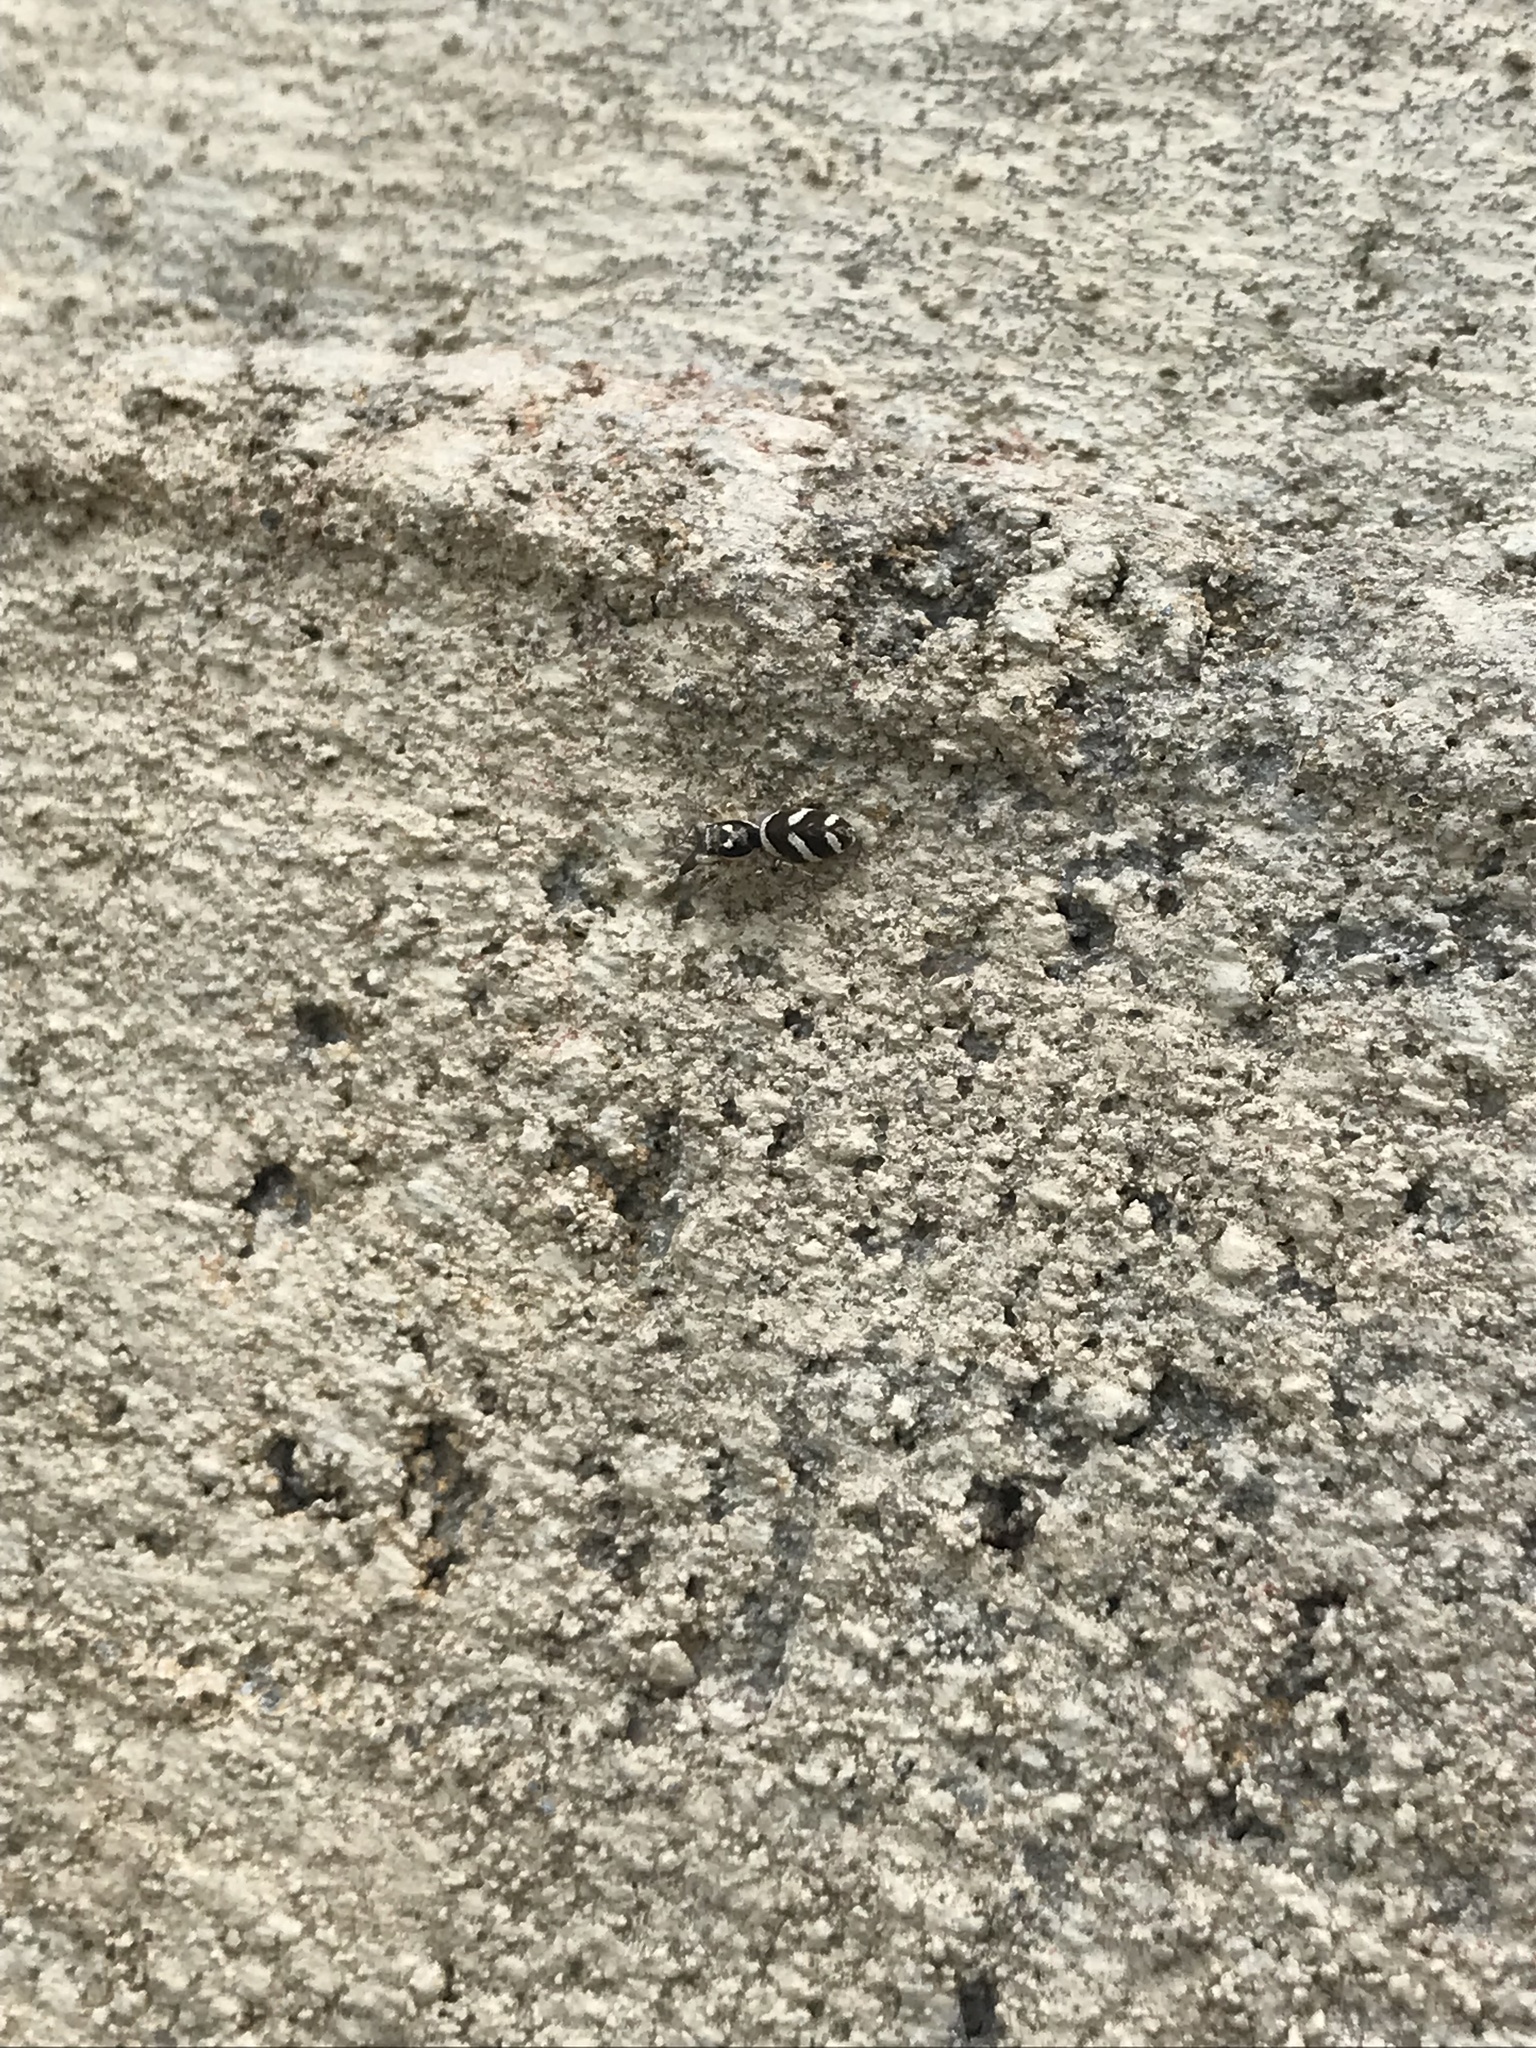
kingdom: Animalia
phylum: Arthropoda
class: Arachnida
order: Araneae
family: Salticidae
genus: Salticus
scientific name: Salticus scenicus
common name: Zebra jumper
